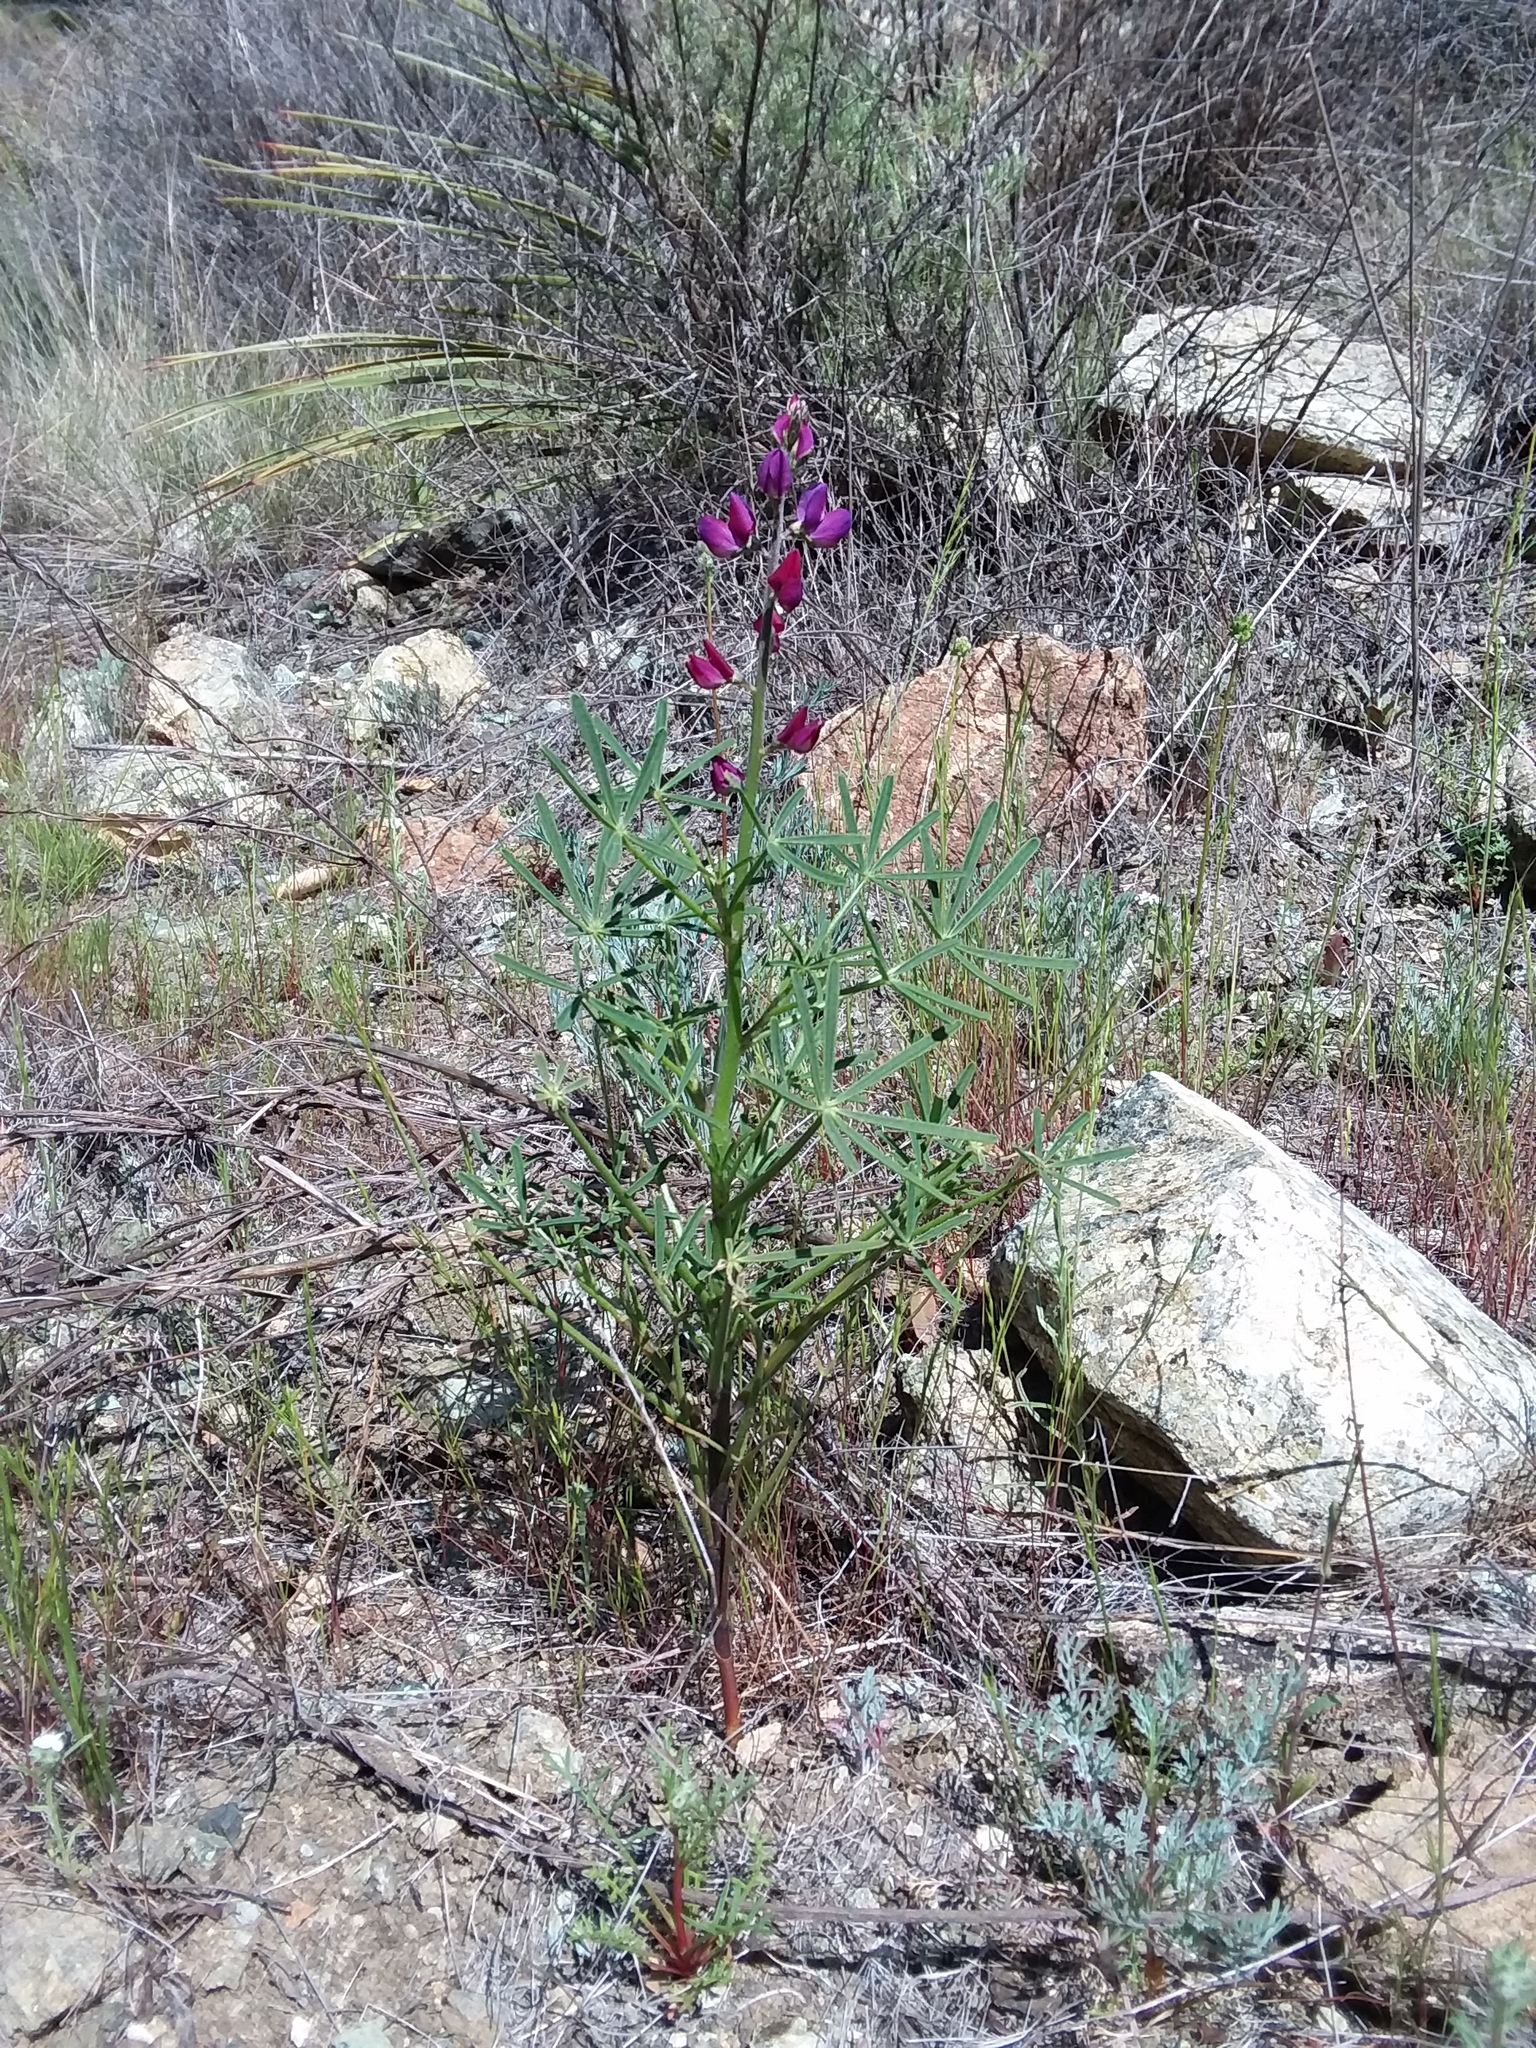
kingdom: Plantae
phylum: Tracheophyta
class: Magnoliopsida
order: Fabales
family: Fabaceae
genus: Lupinus
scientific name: Lupinus truncatus
